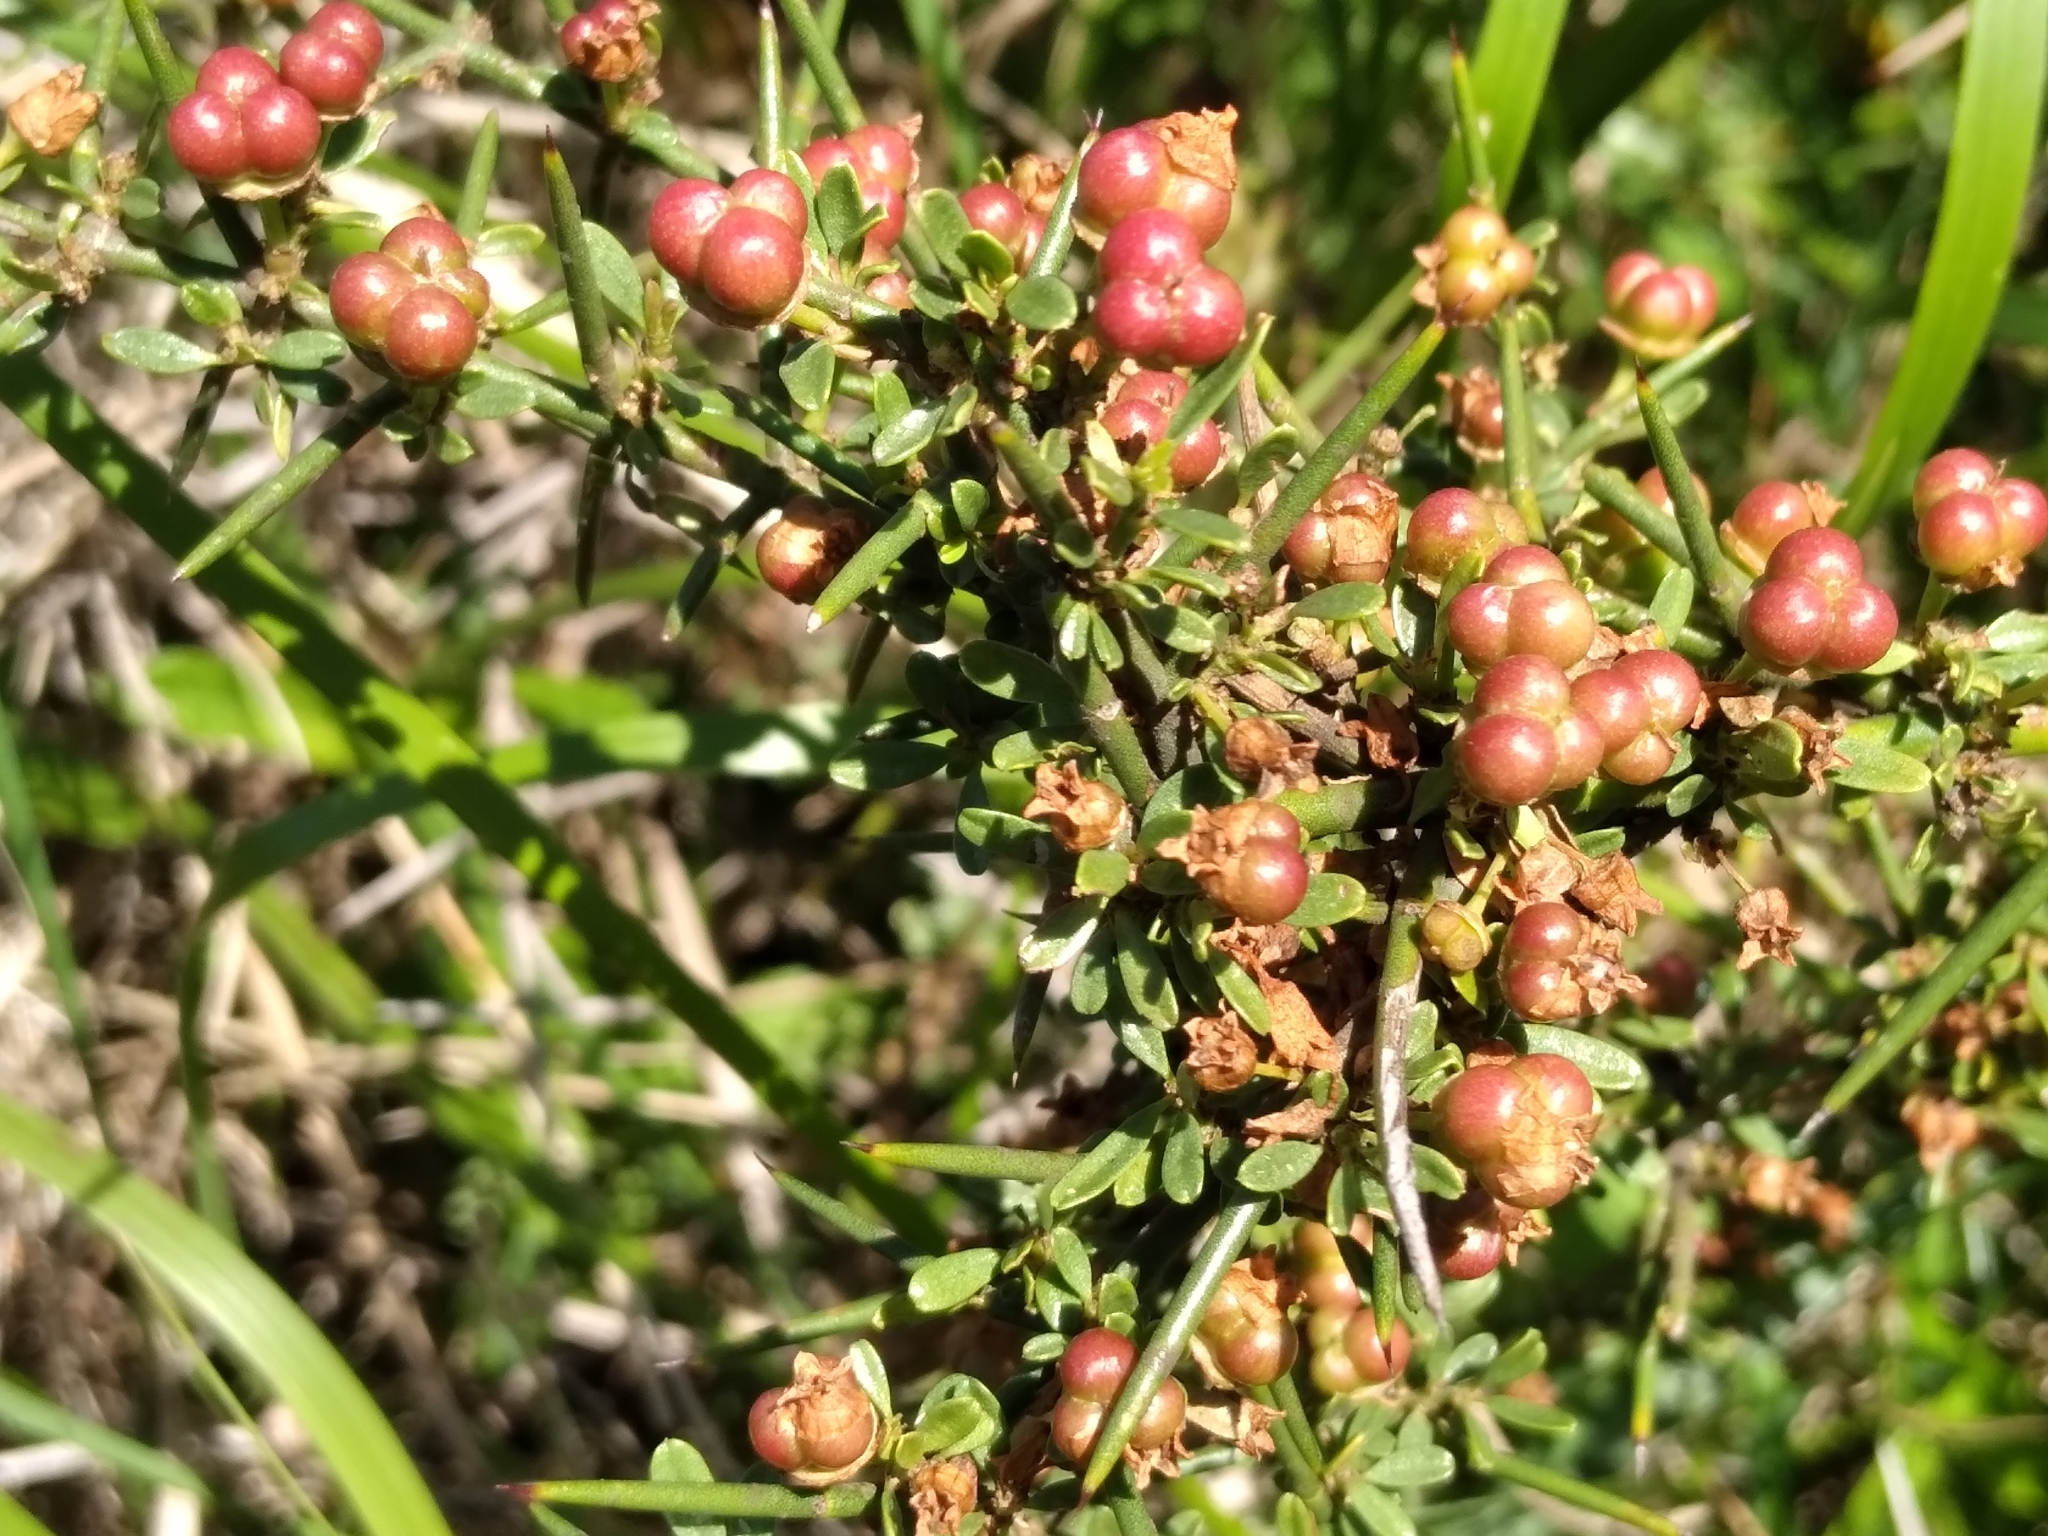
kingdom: Plantae
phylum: Tracheophyta
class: Magnoliopsida
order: Rosales
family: Rhamnaceae
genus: Discaria
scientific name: Discaria americana
